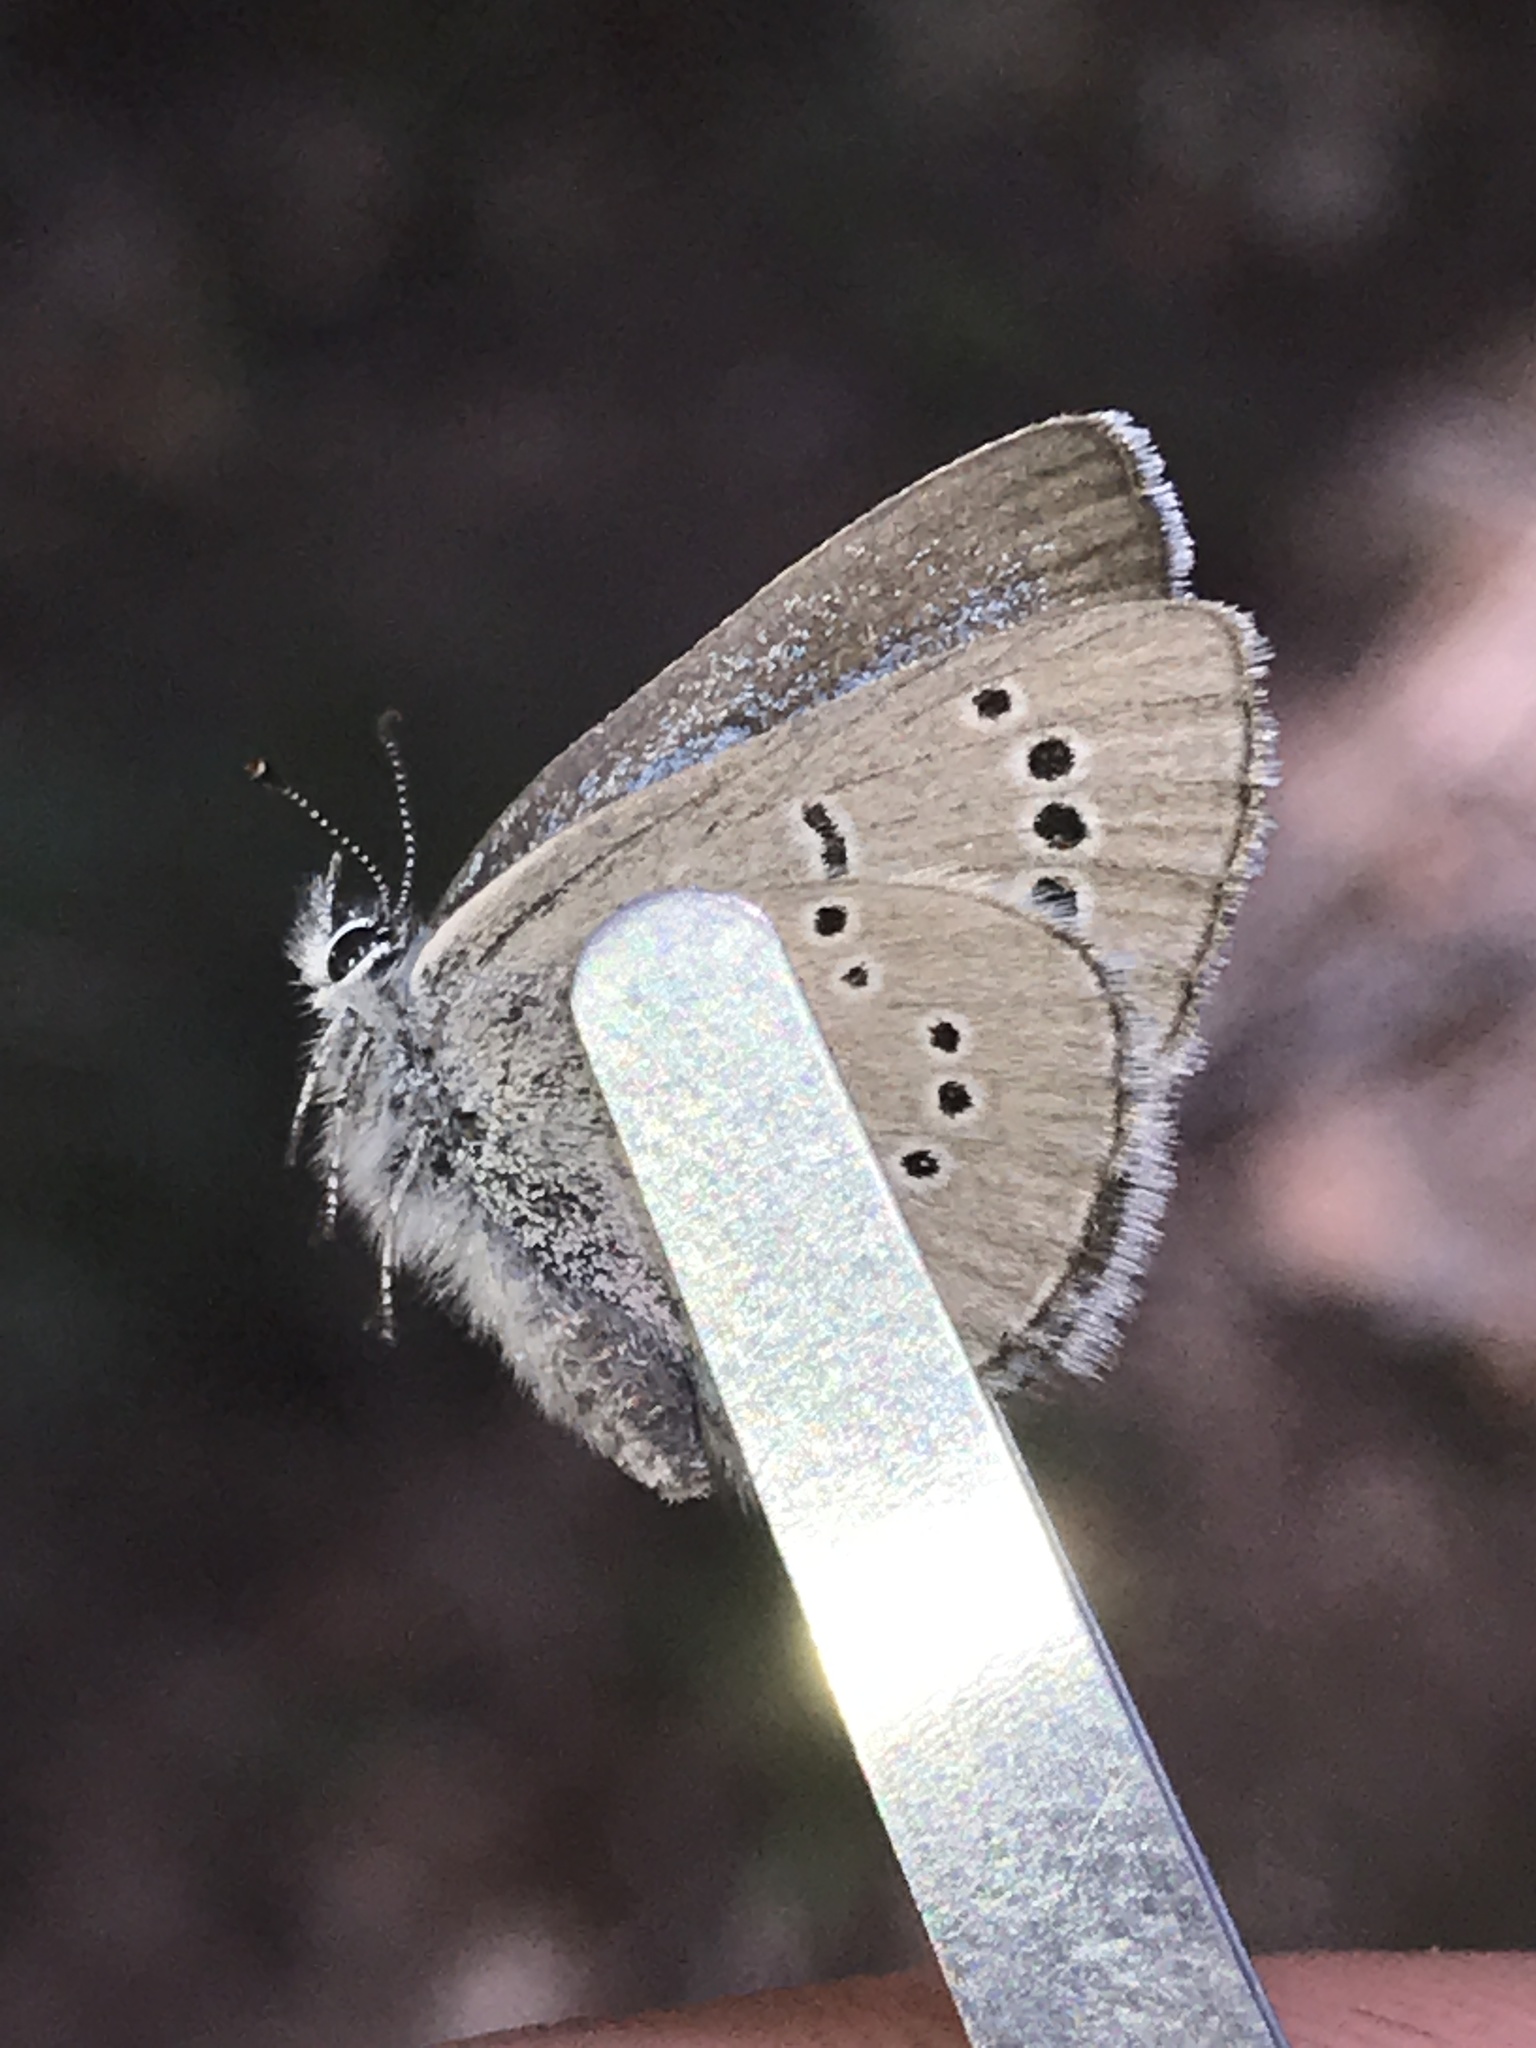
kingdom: Animalia
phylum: Arthropoda
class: Insecta
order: Lepidoptera
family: Lycaenidae
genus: Glaucopsyche
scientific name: Glaucopsyche lygdamus
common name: Silvery blue
